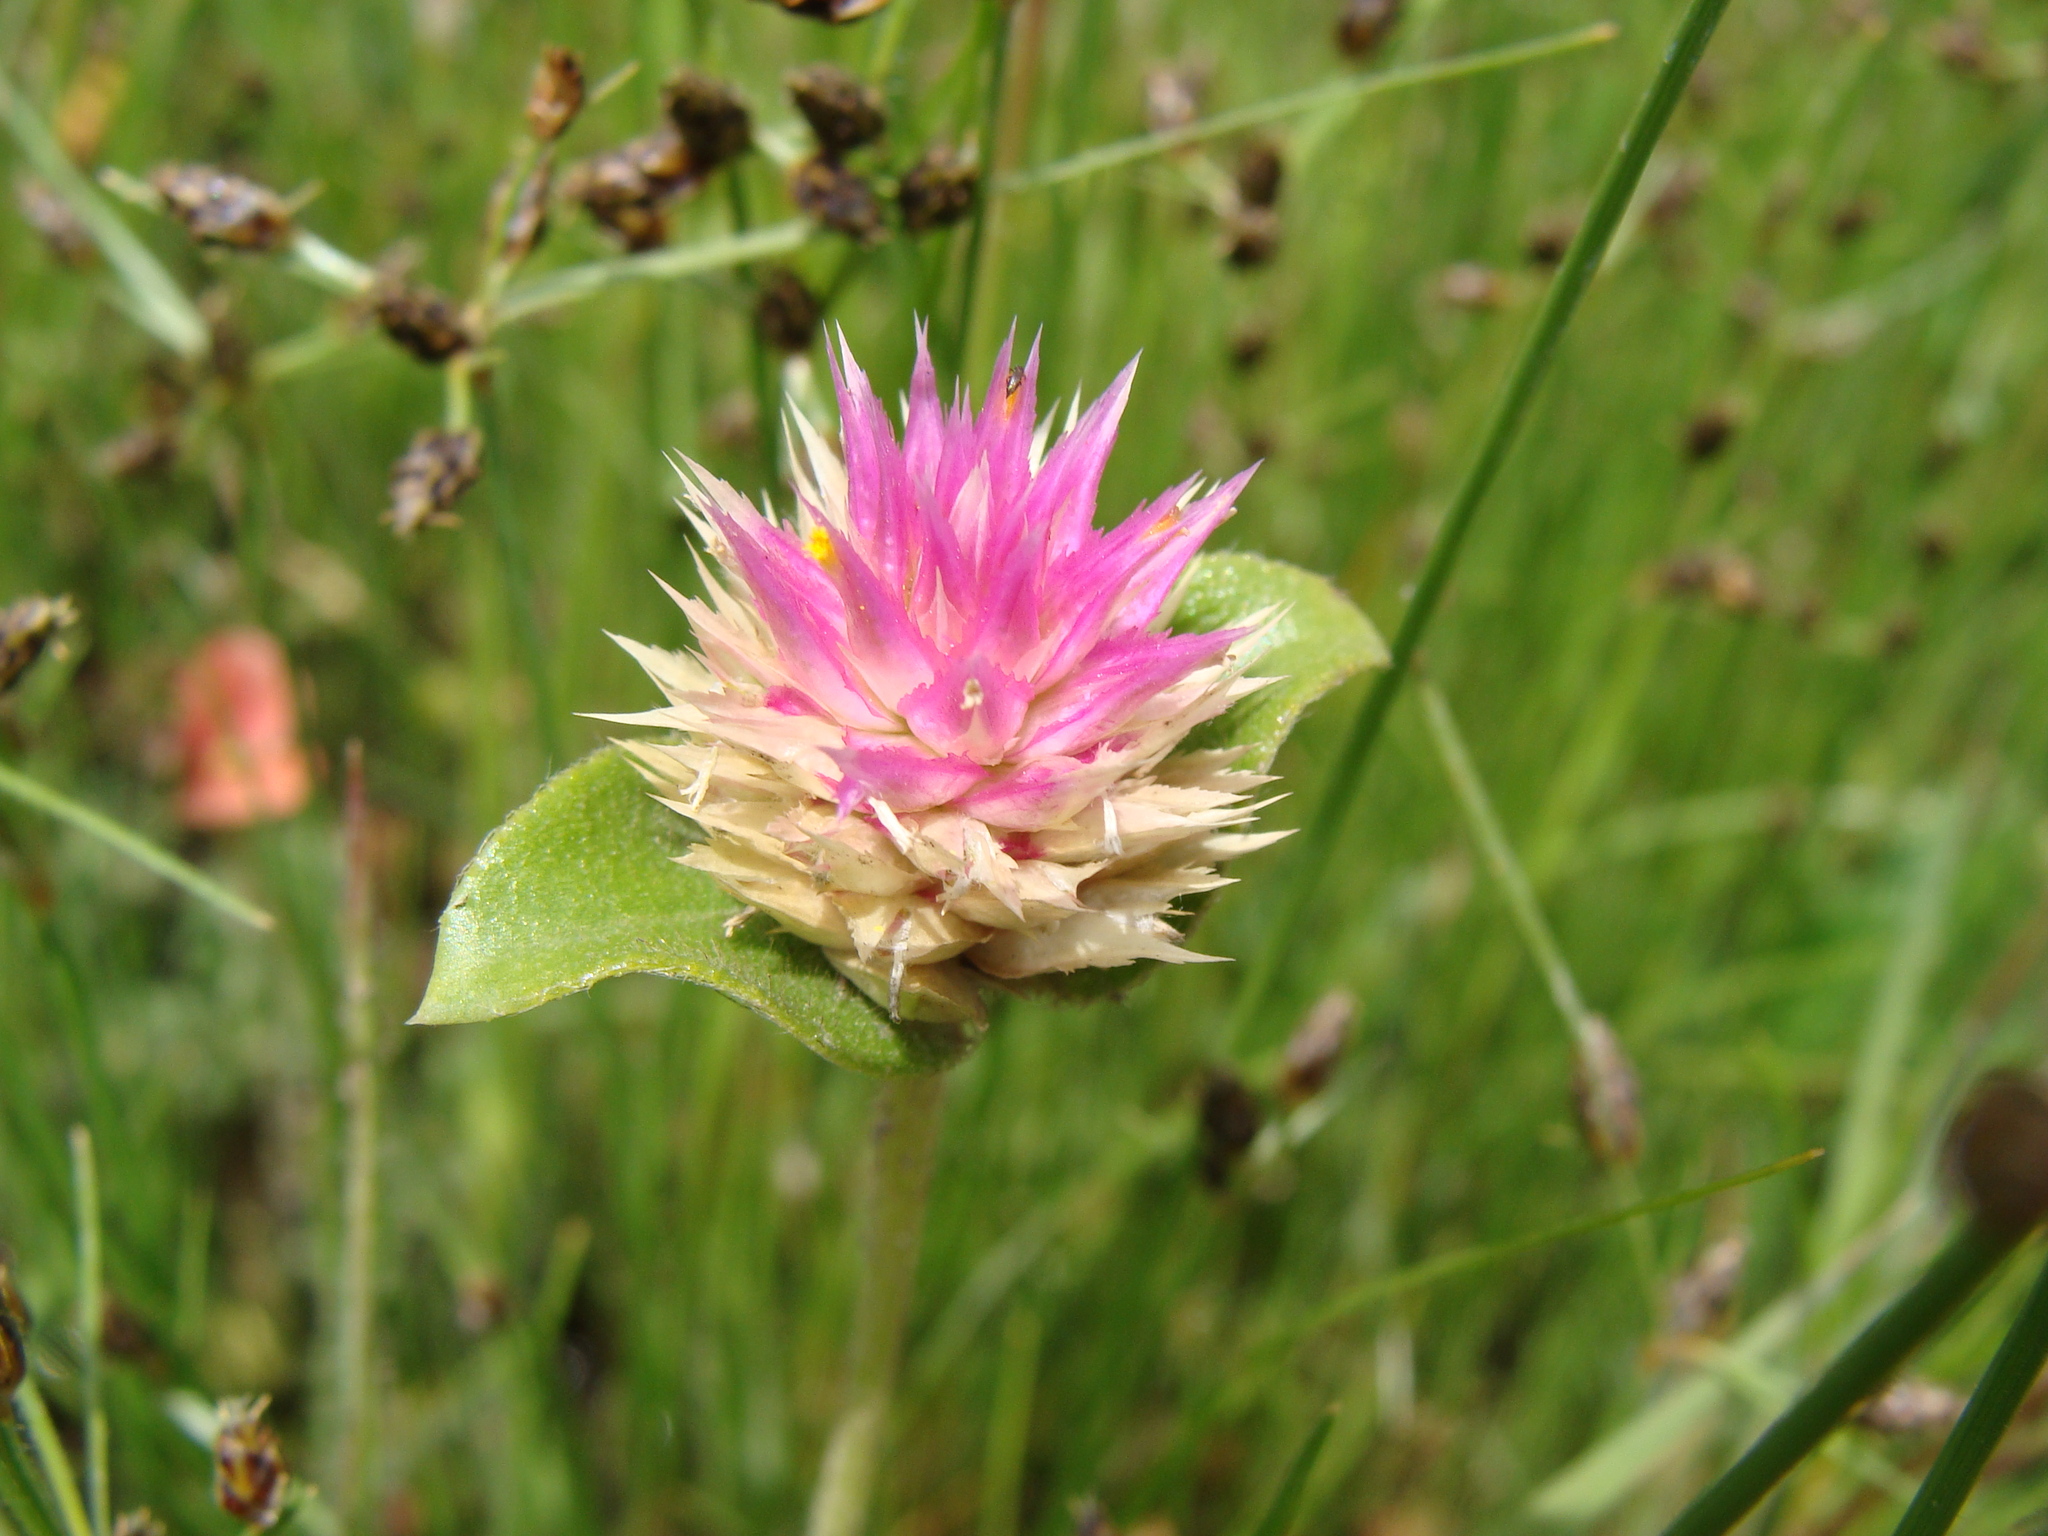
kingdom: Plantae
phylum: Tracheophyta
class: Magnoliopsida
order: Caryophyllales
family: Amaranthaceae
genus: Gomphrena
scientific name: Gomphrena serrata
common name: Arrasa con todo
